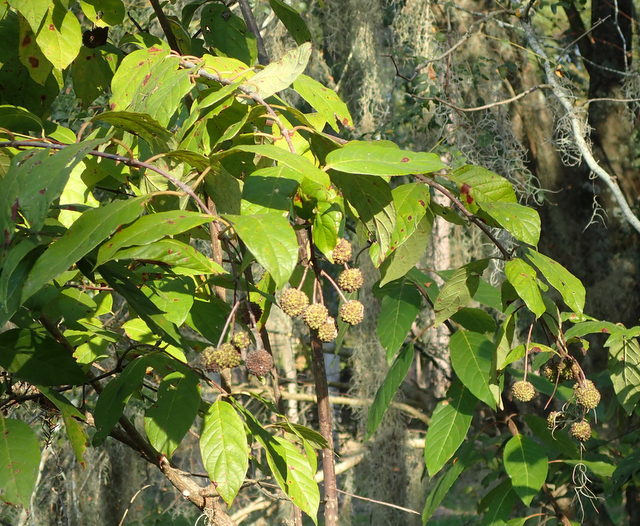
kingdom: Plantae
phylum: Tracheophyta
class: Magnoliopsida
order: Gentianales
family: Rubiaceae
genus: Cephalanthus
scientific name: Cephalanthus occidentalis
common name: Button-willow
